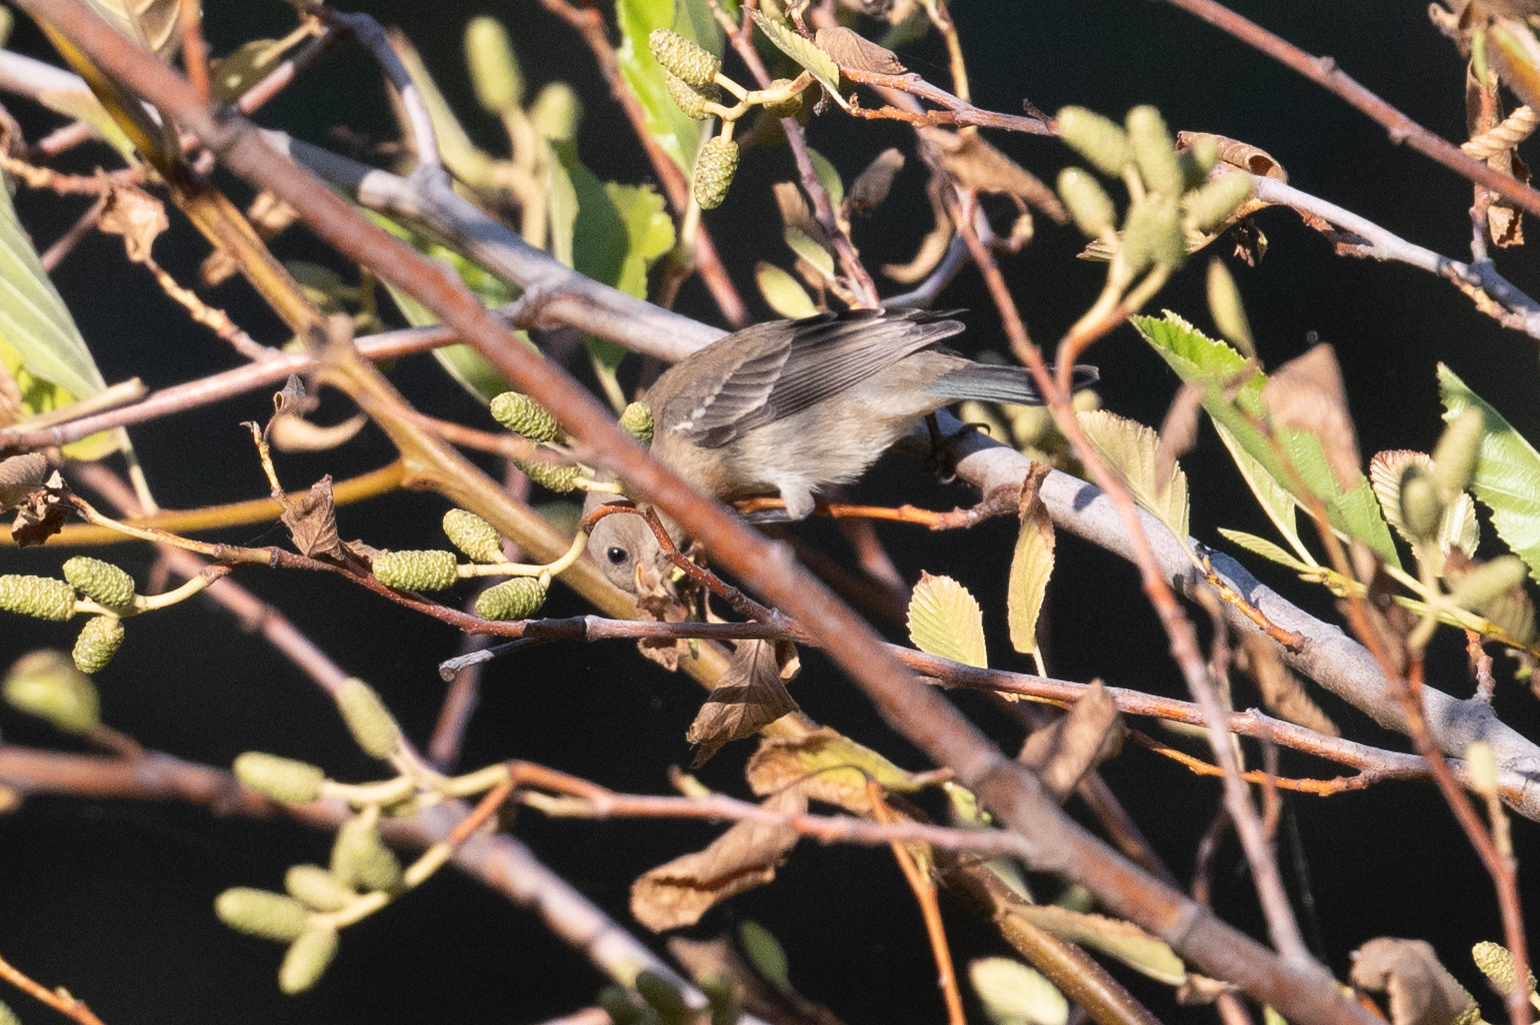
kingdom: Animalia
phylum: Chordata
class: Aves
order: Passeriformes
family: Cardinalidae
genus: Passerina
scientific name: Passerina amoena
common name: Lazuli bunting
